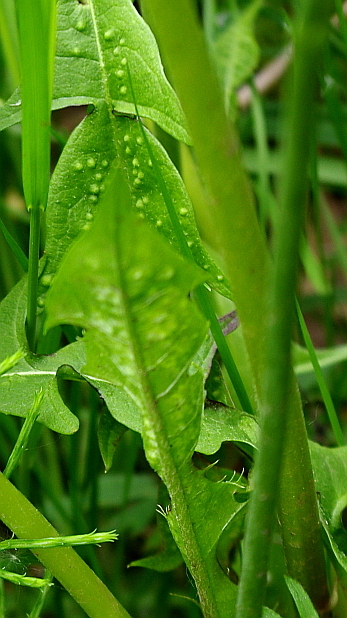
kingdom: Plantae
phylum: Tracheophyta
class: Magnoliopsida
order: Asterales
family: Asteraceae
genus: Taraxacum
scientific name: Taraxacum officinale
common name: Common dandelion
